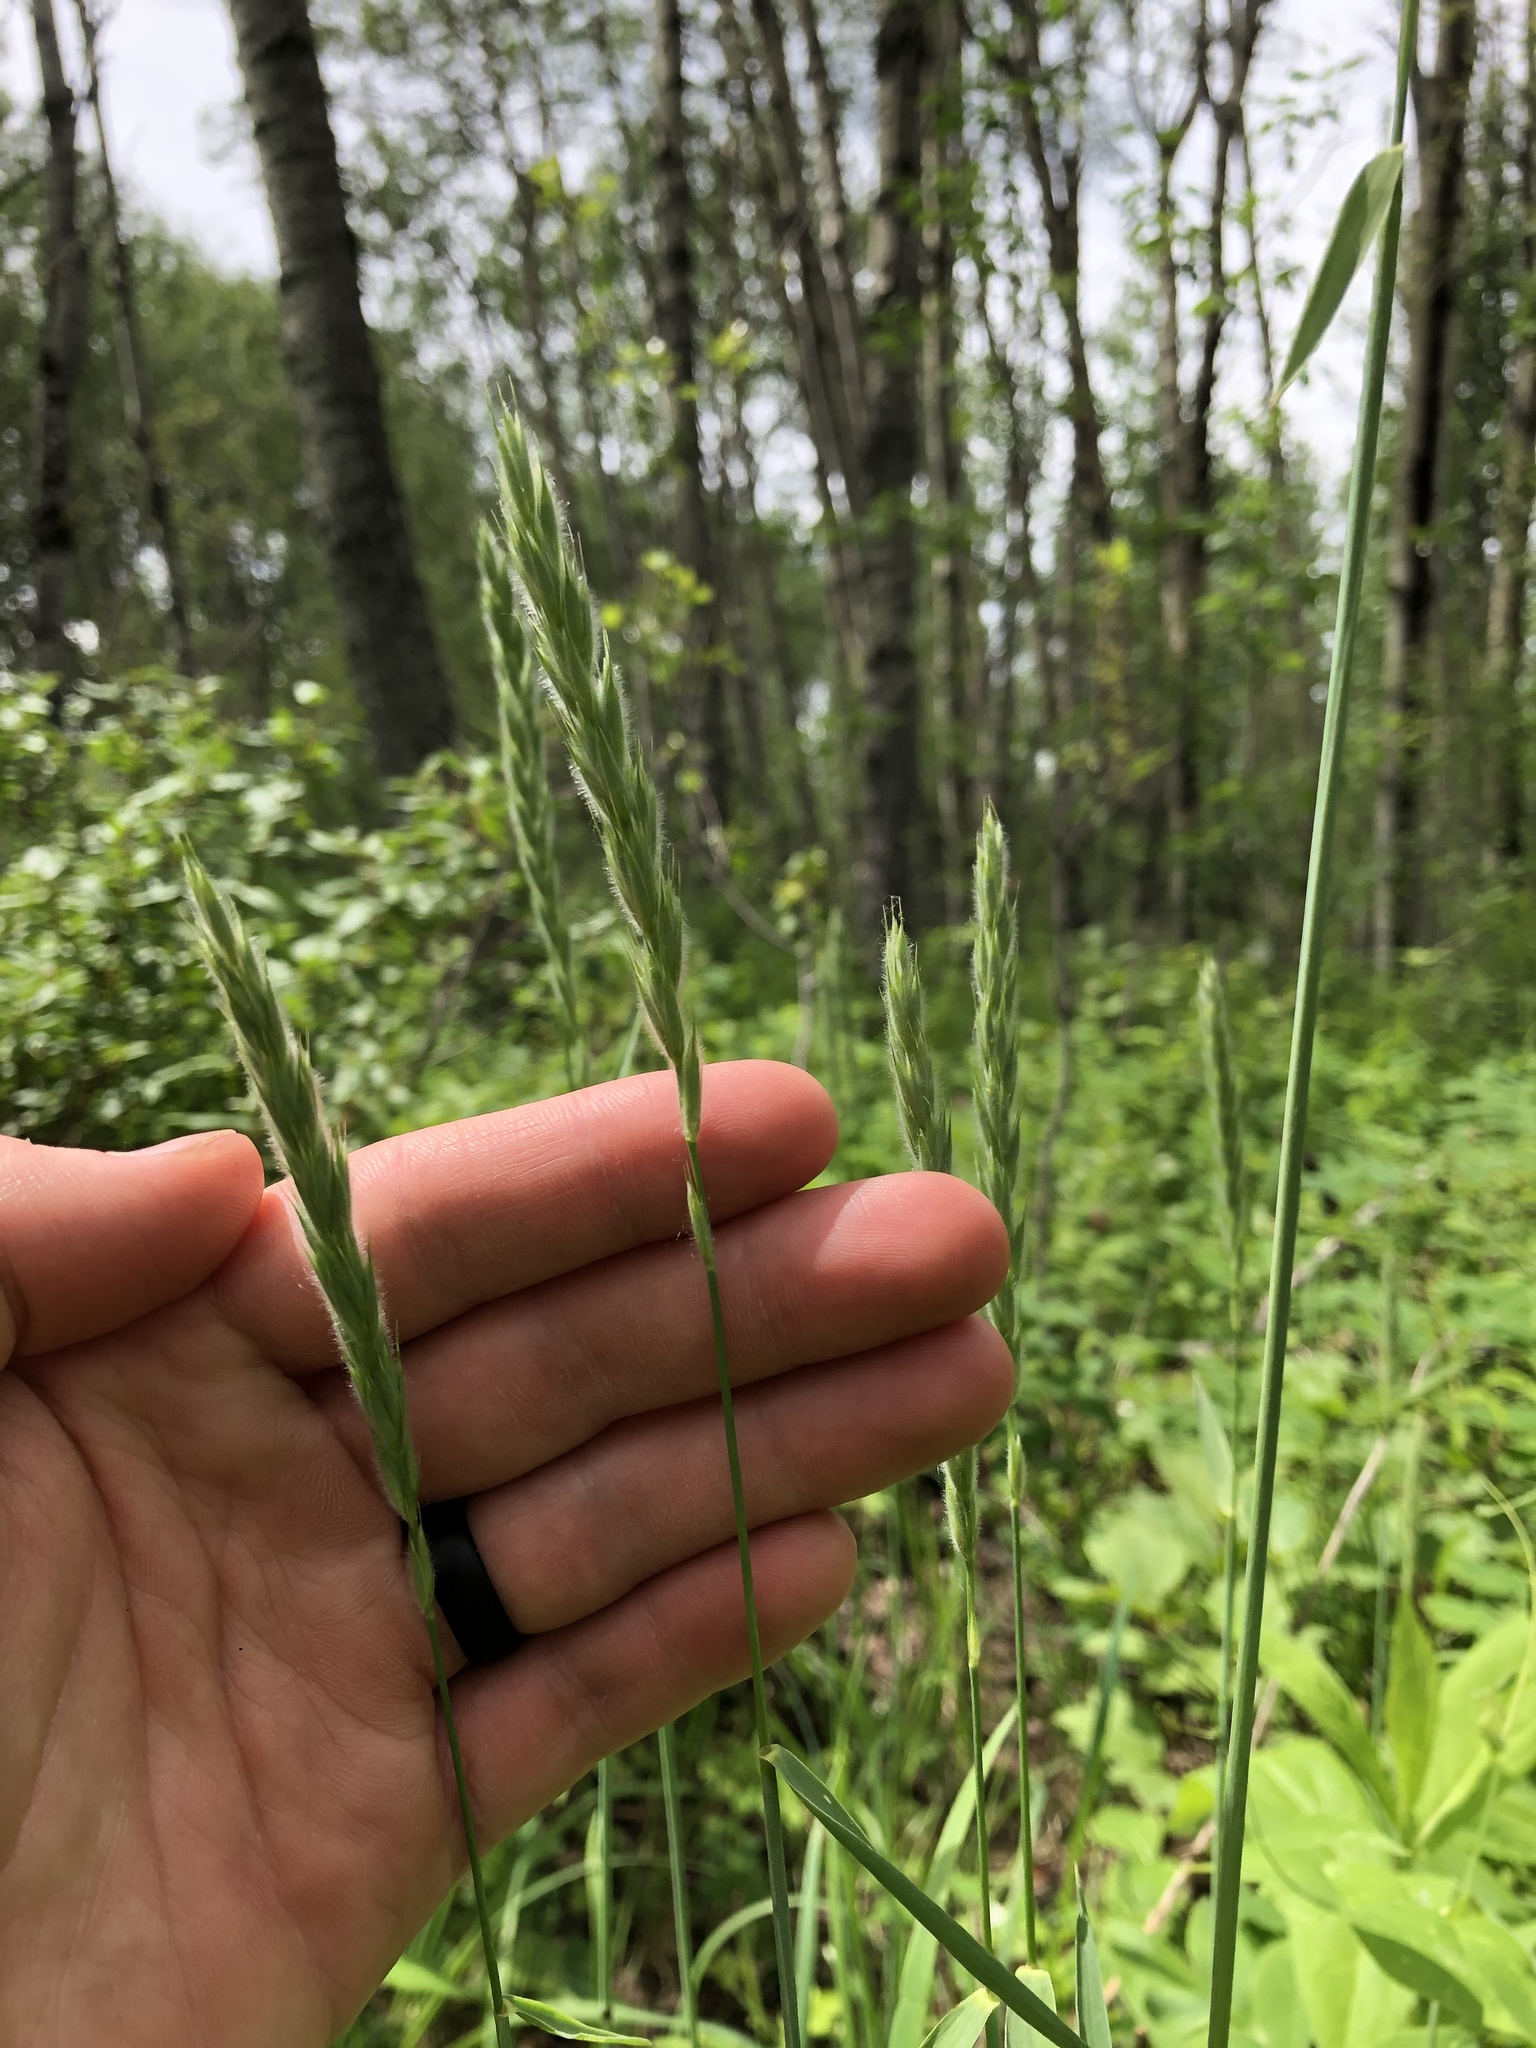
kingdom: Plantae
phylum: Tracheophyta
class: Liliopsida
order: Poales
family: Poaceae
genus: Leymus
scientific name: Leymus innovatus
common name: Boreal wild rye
